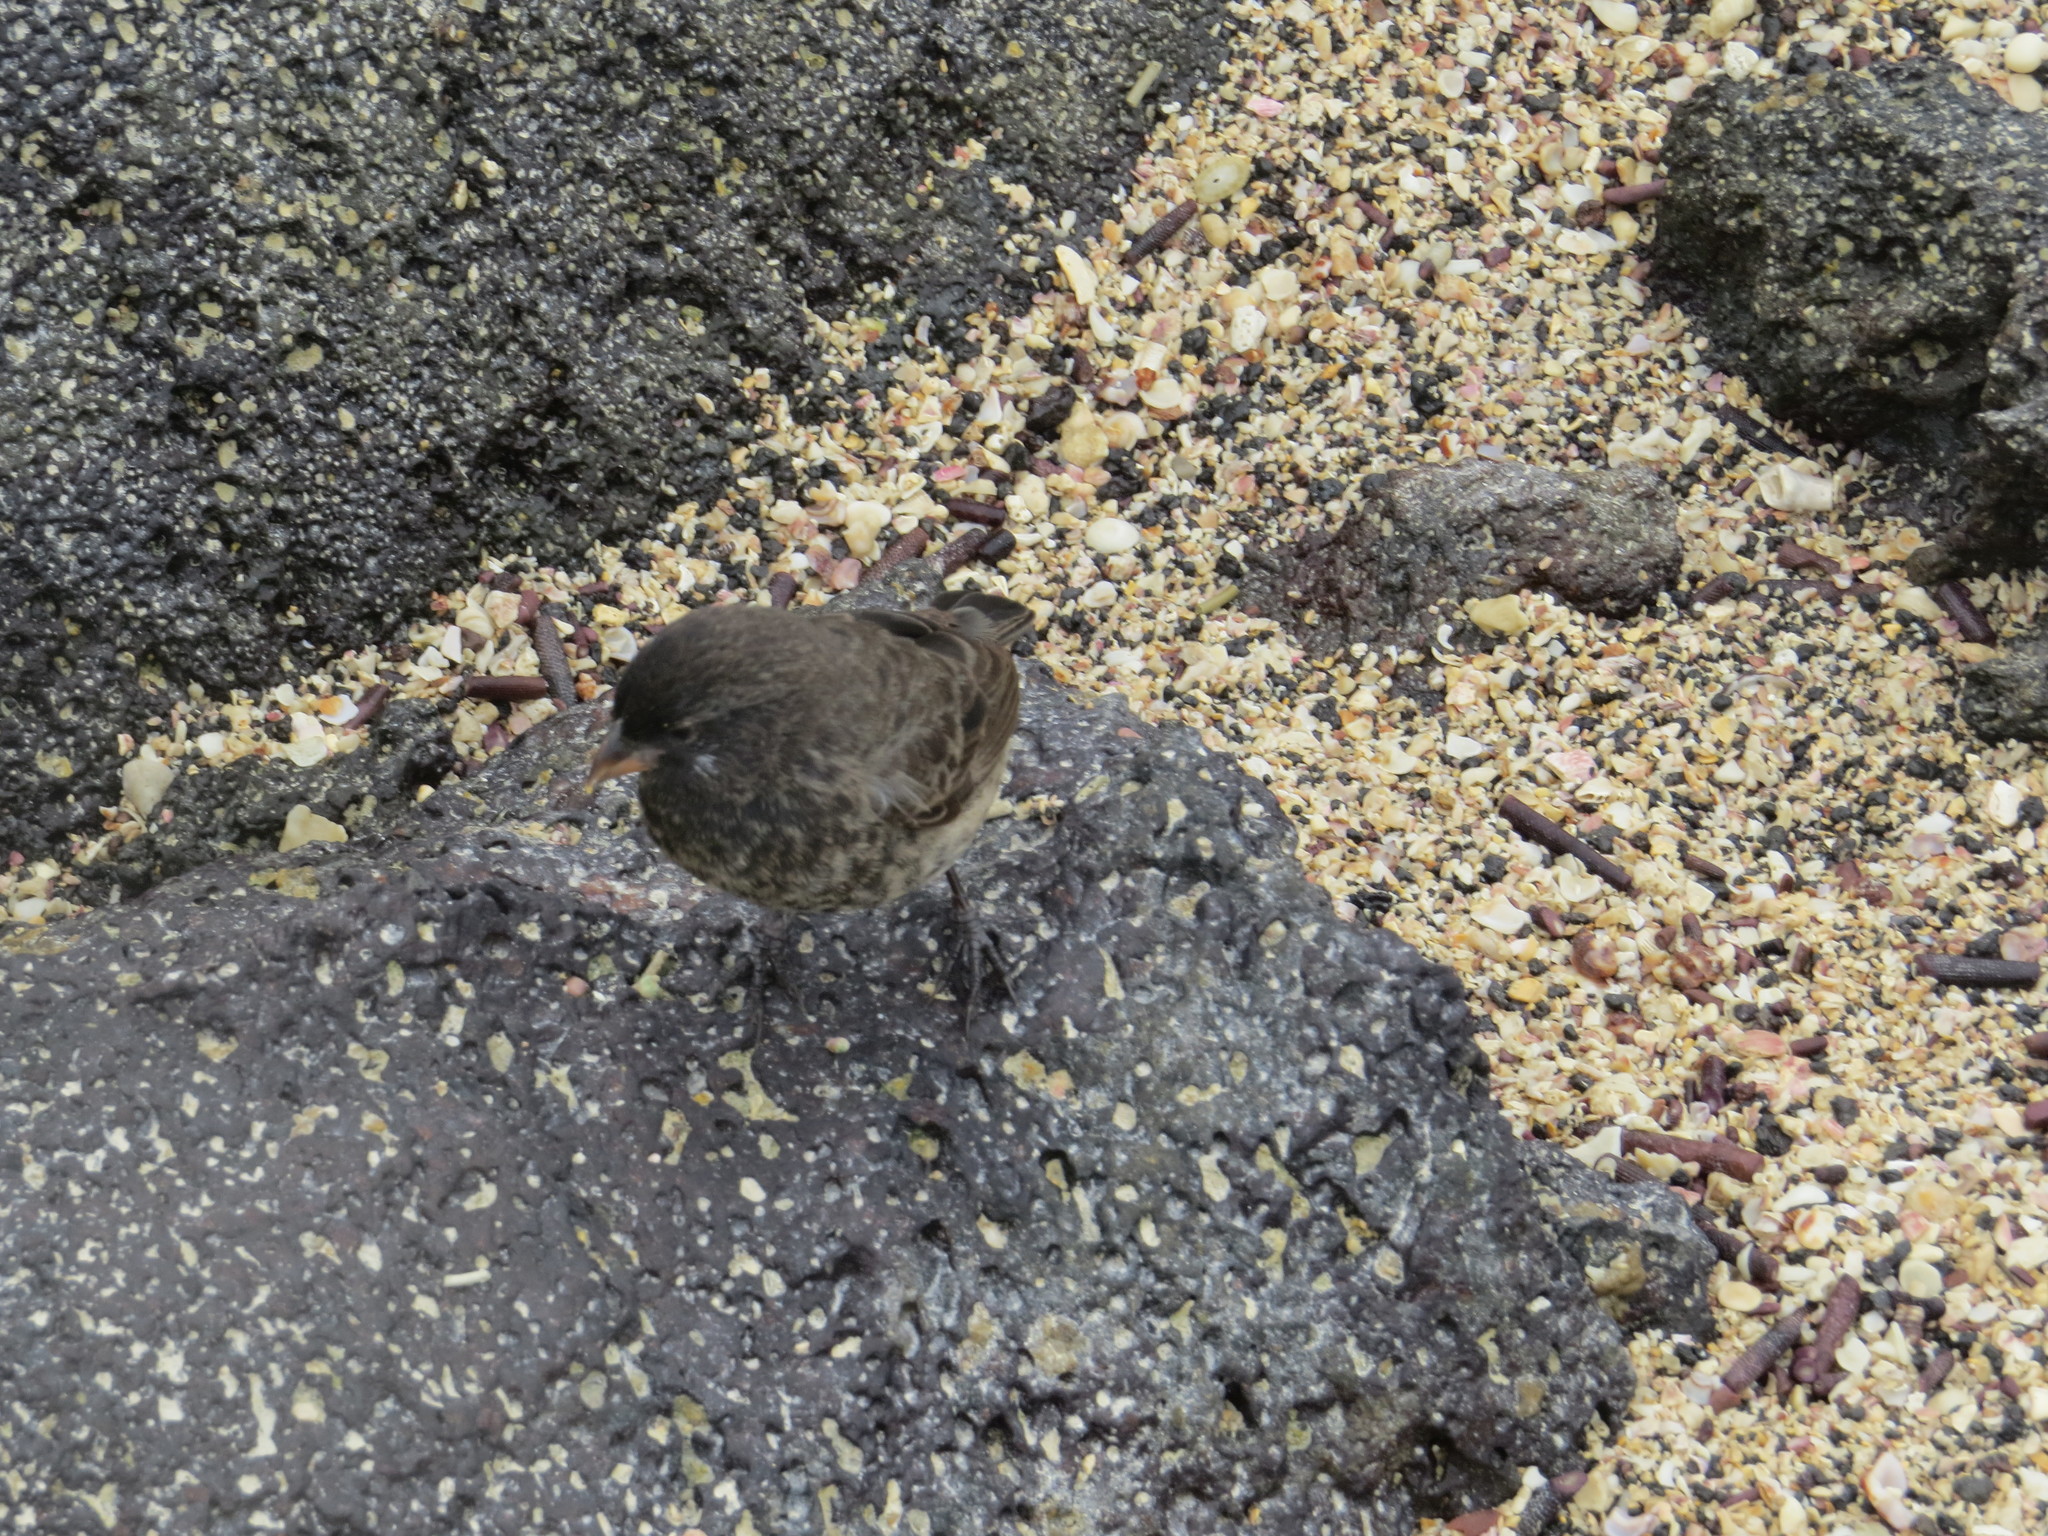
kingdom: Animalia
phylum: Chordata
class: Aves
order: Passeriformes
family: Thraupidae
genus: Geospiza
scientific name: Geospiza fuliginosa
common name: Small ground finch
